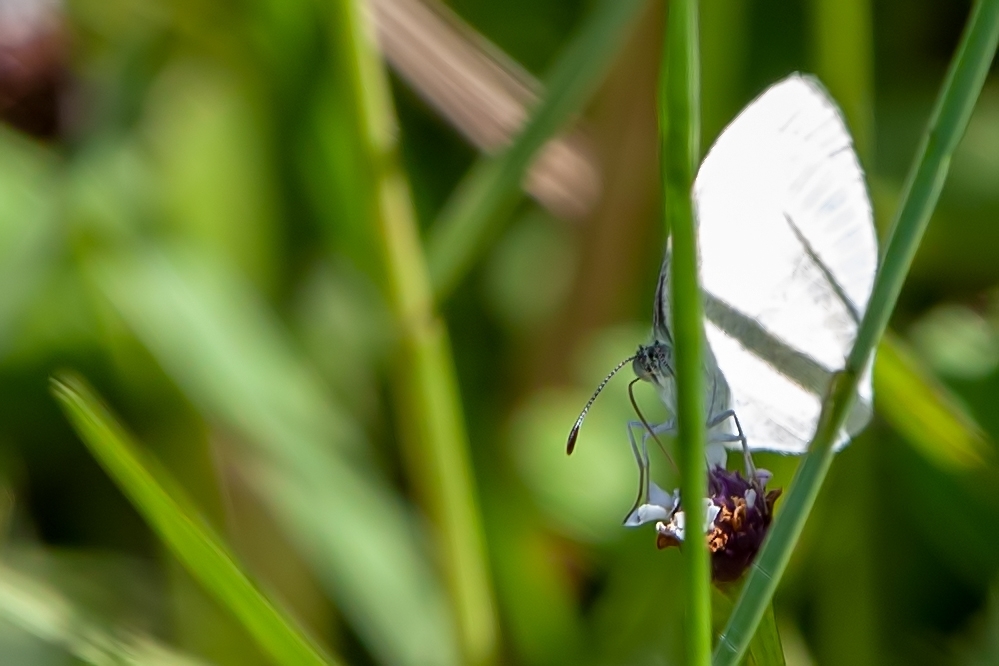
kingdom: Animalia
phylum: Arthropoda
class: Insecta
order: Lepidoptera
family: Pieridae
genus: Eurema
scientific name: Eurema daira
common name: Barred sulphur
